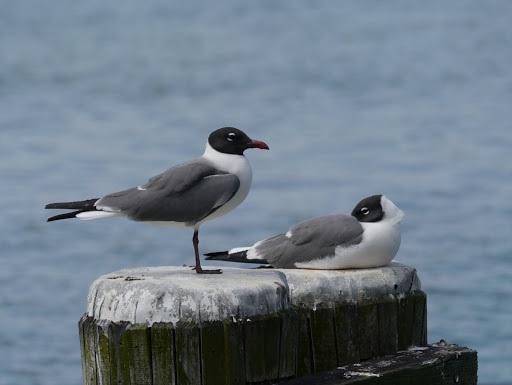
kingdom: Animalia
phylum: Chordata
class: Aves
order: Charadriiformes
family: Laridae
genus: Leucophaeus
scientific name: Leucophaeus atricilla
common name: Laughing gull
